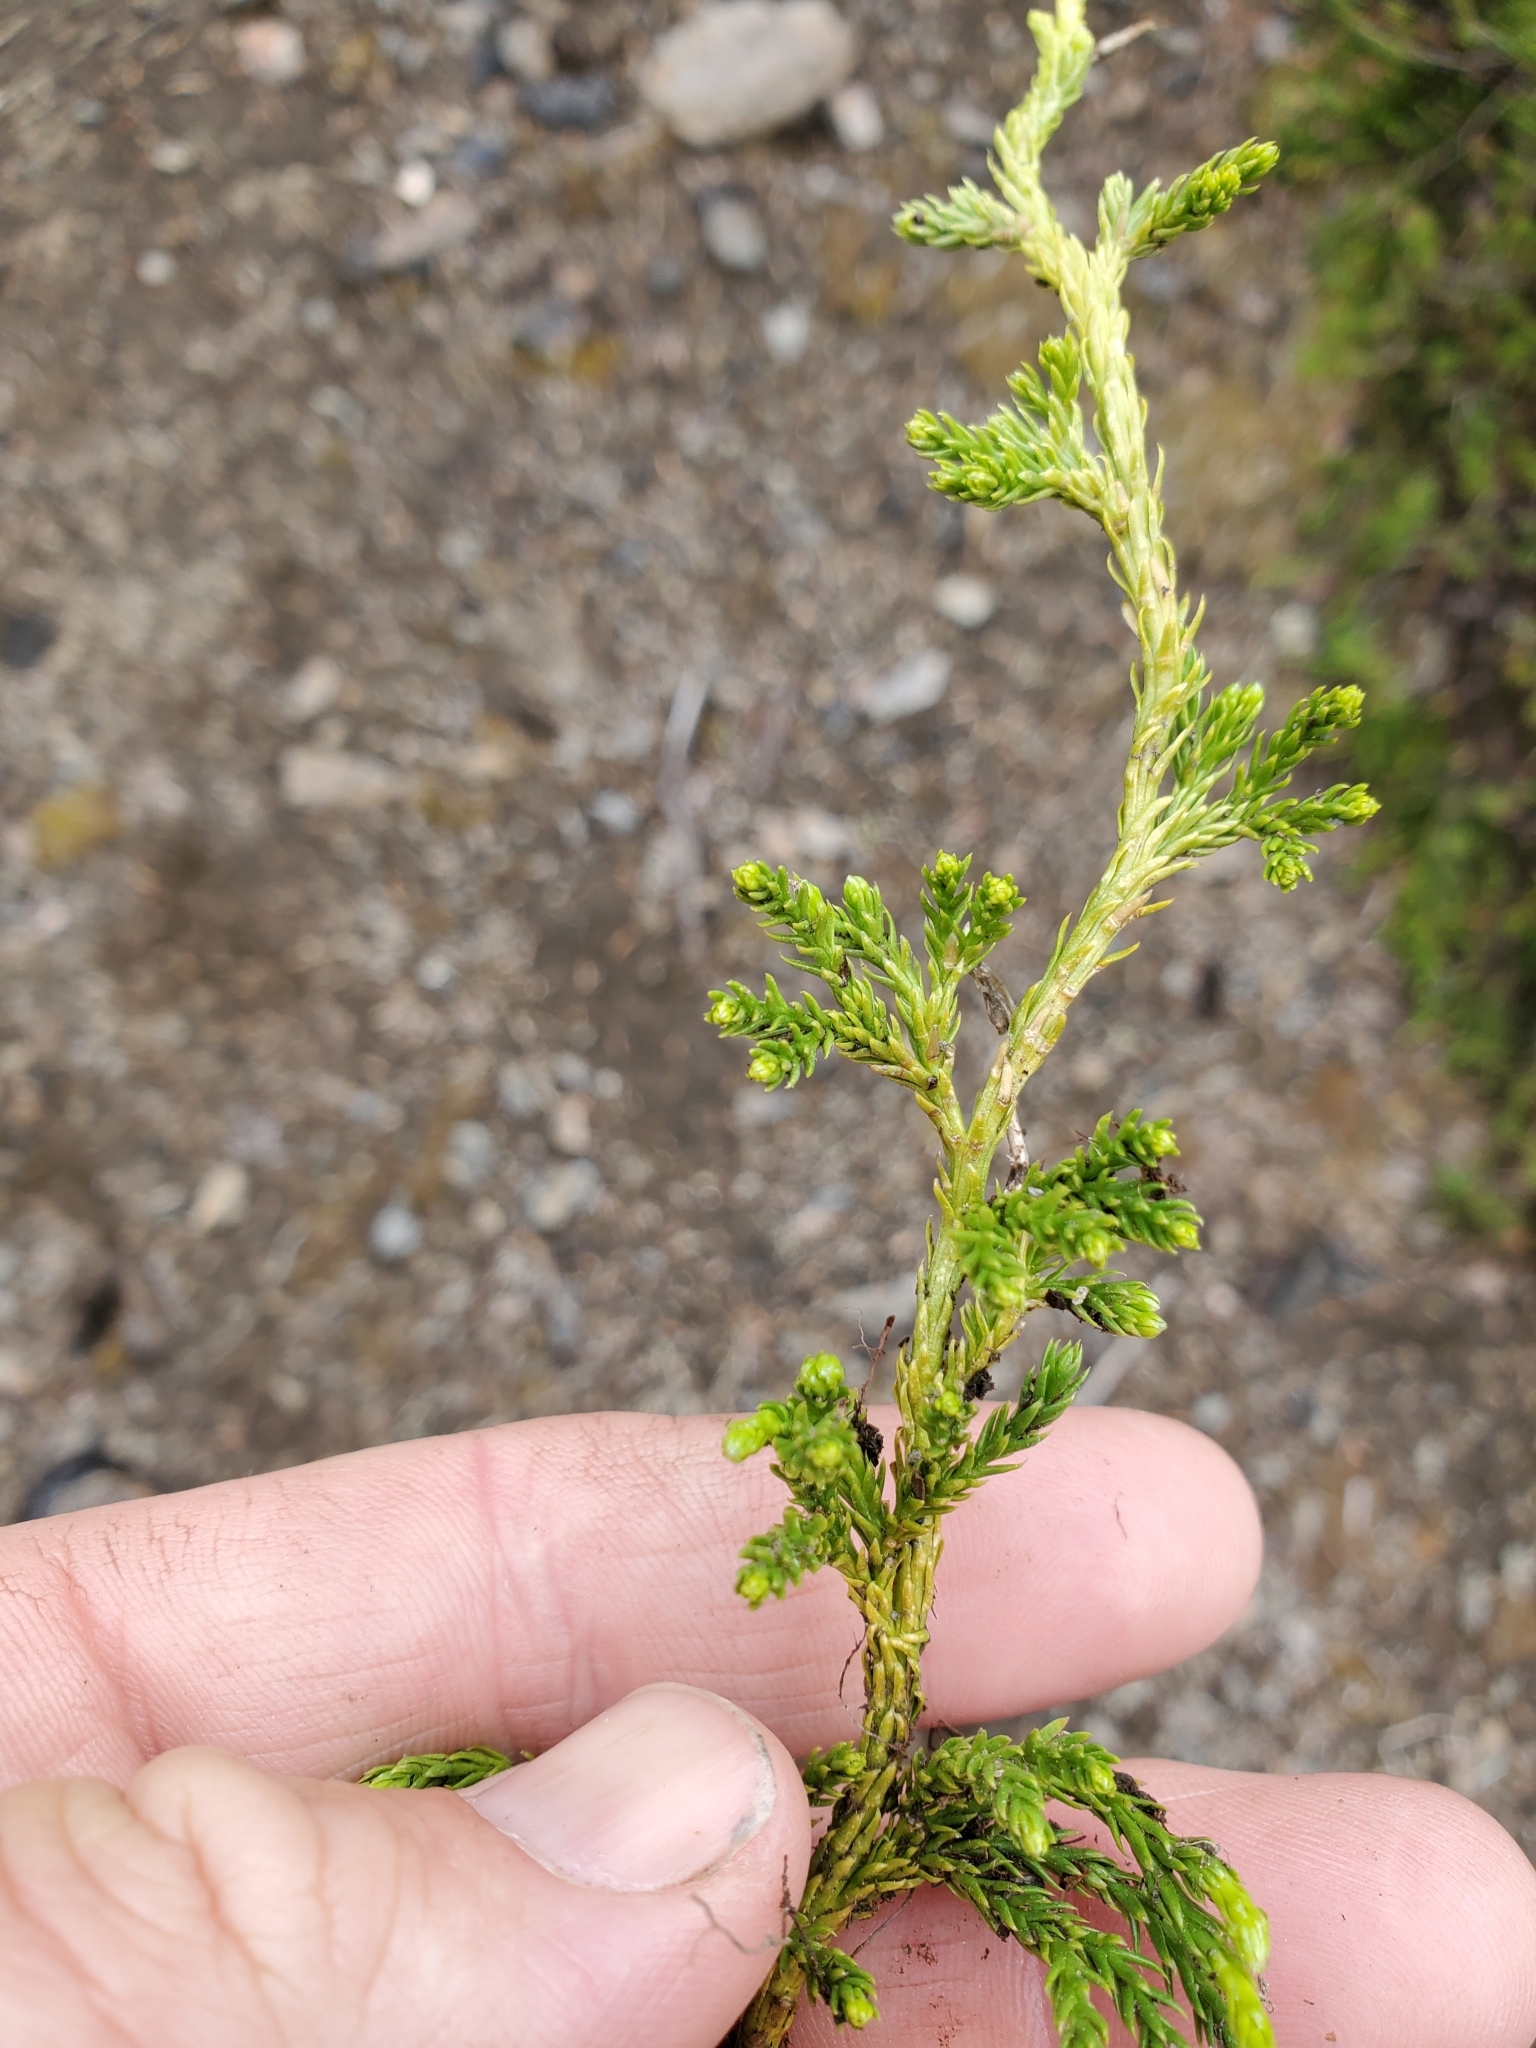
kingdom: Plantae
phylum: Tracheophyta
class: Lycopodiopsida
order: Lycopodiales
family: Lycopodiaceae
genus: Diphasiastrum
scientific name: Diphasiastrum sitchense
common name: Alaska clubmoss
